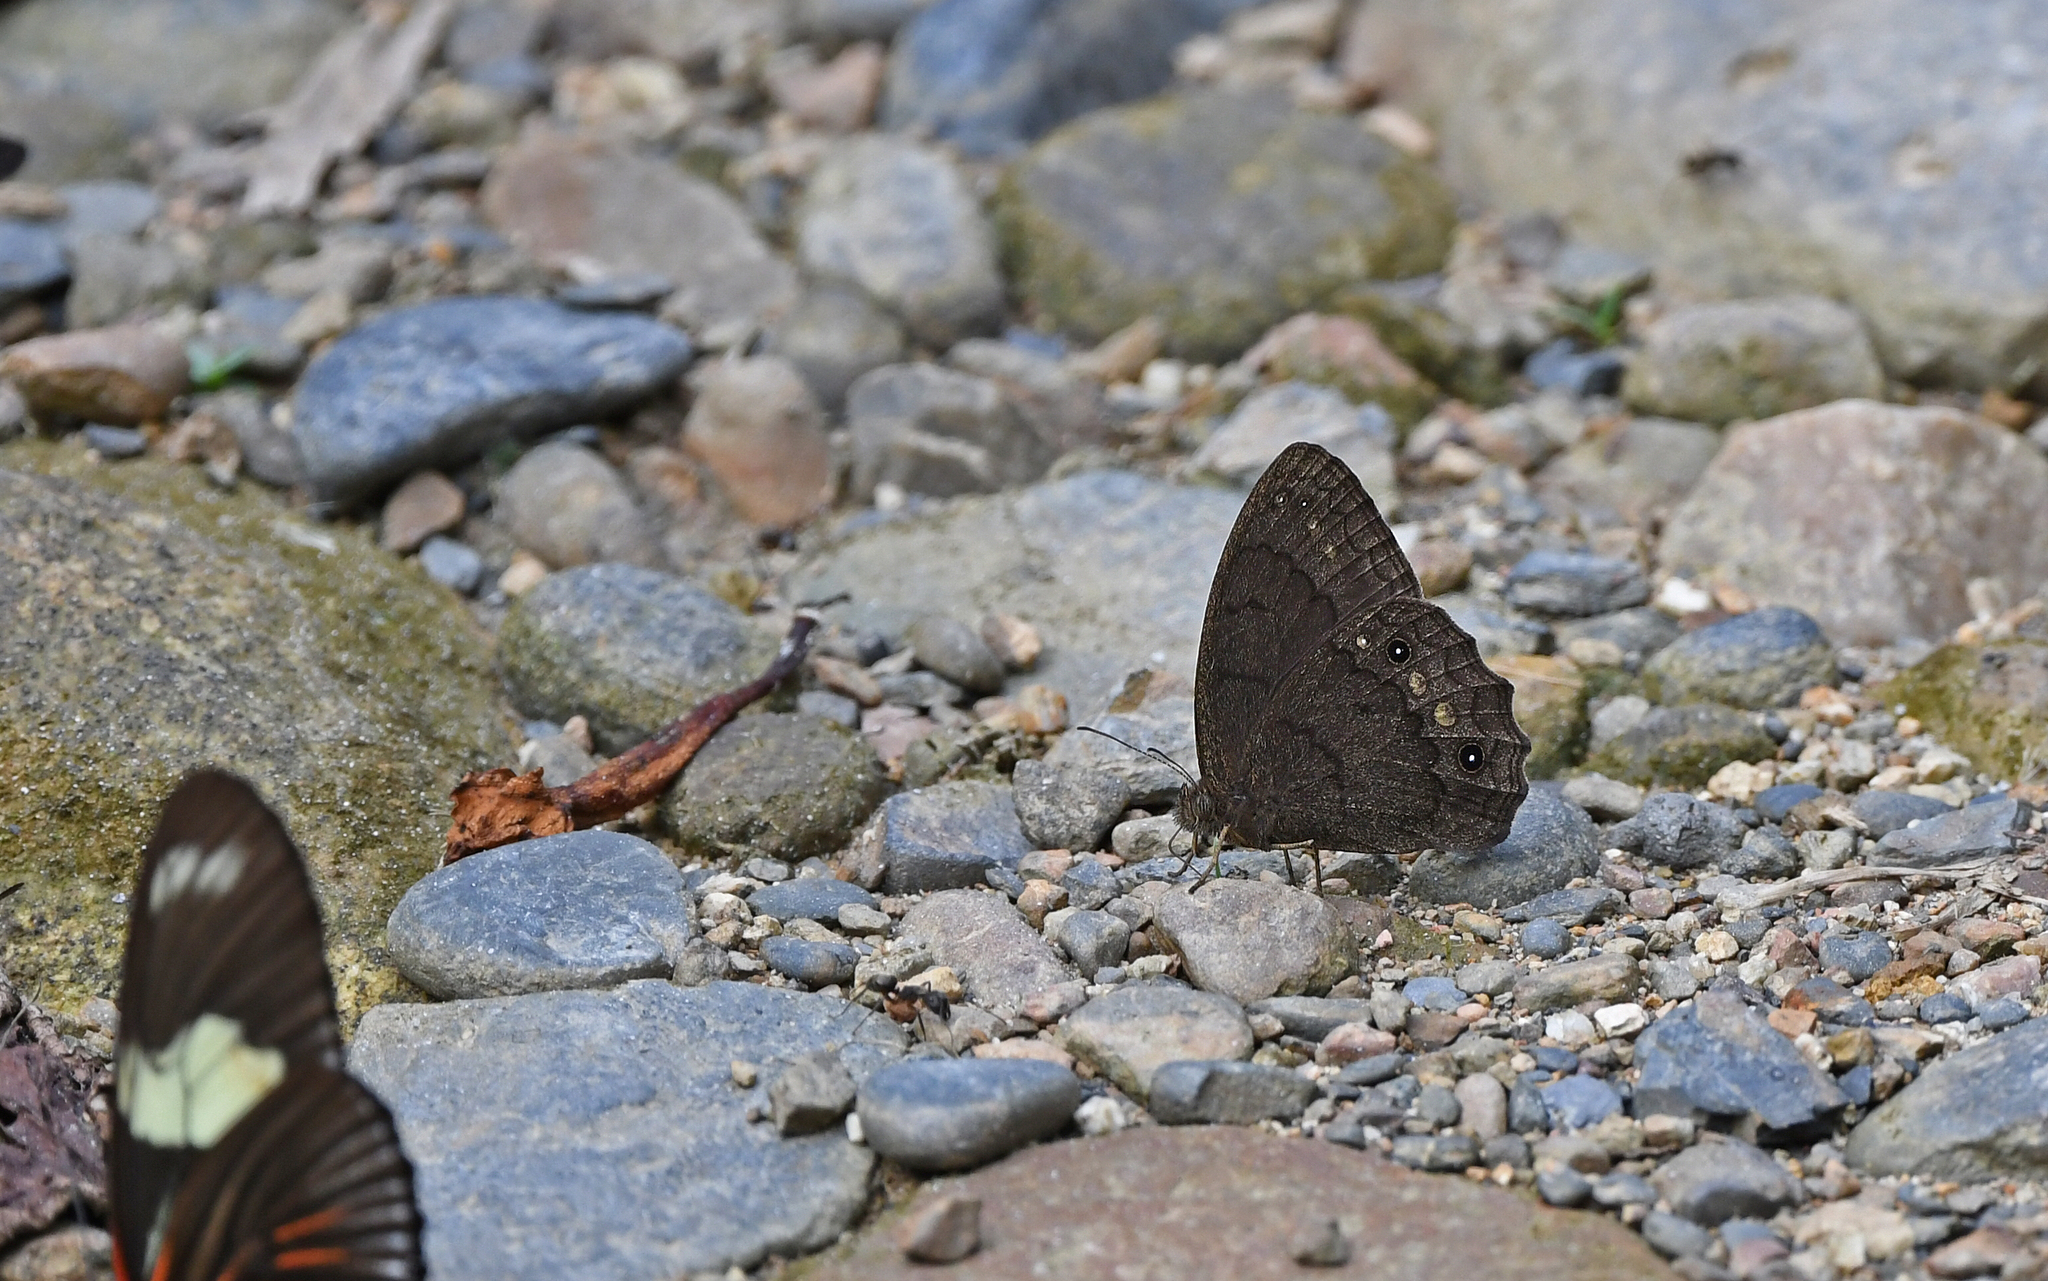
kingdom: Animalia
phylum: Arthropoda
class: Insecta
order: Lepidoptera
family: Nymphalidae
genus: Harjesia
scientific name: Harjesia obscura
